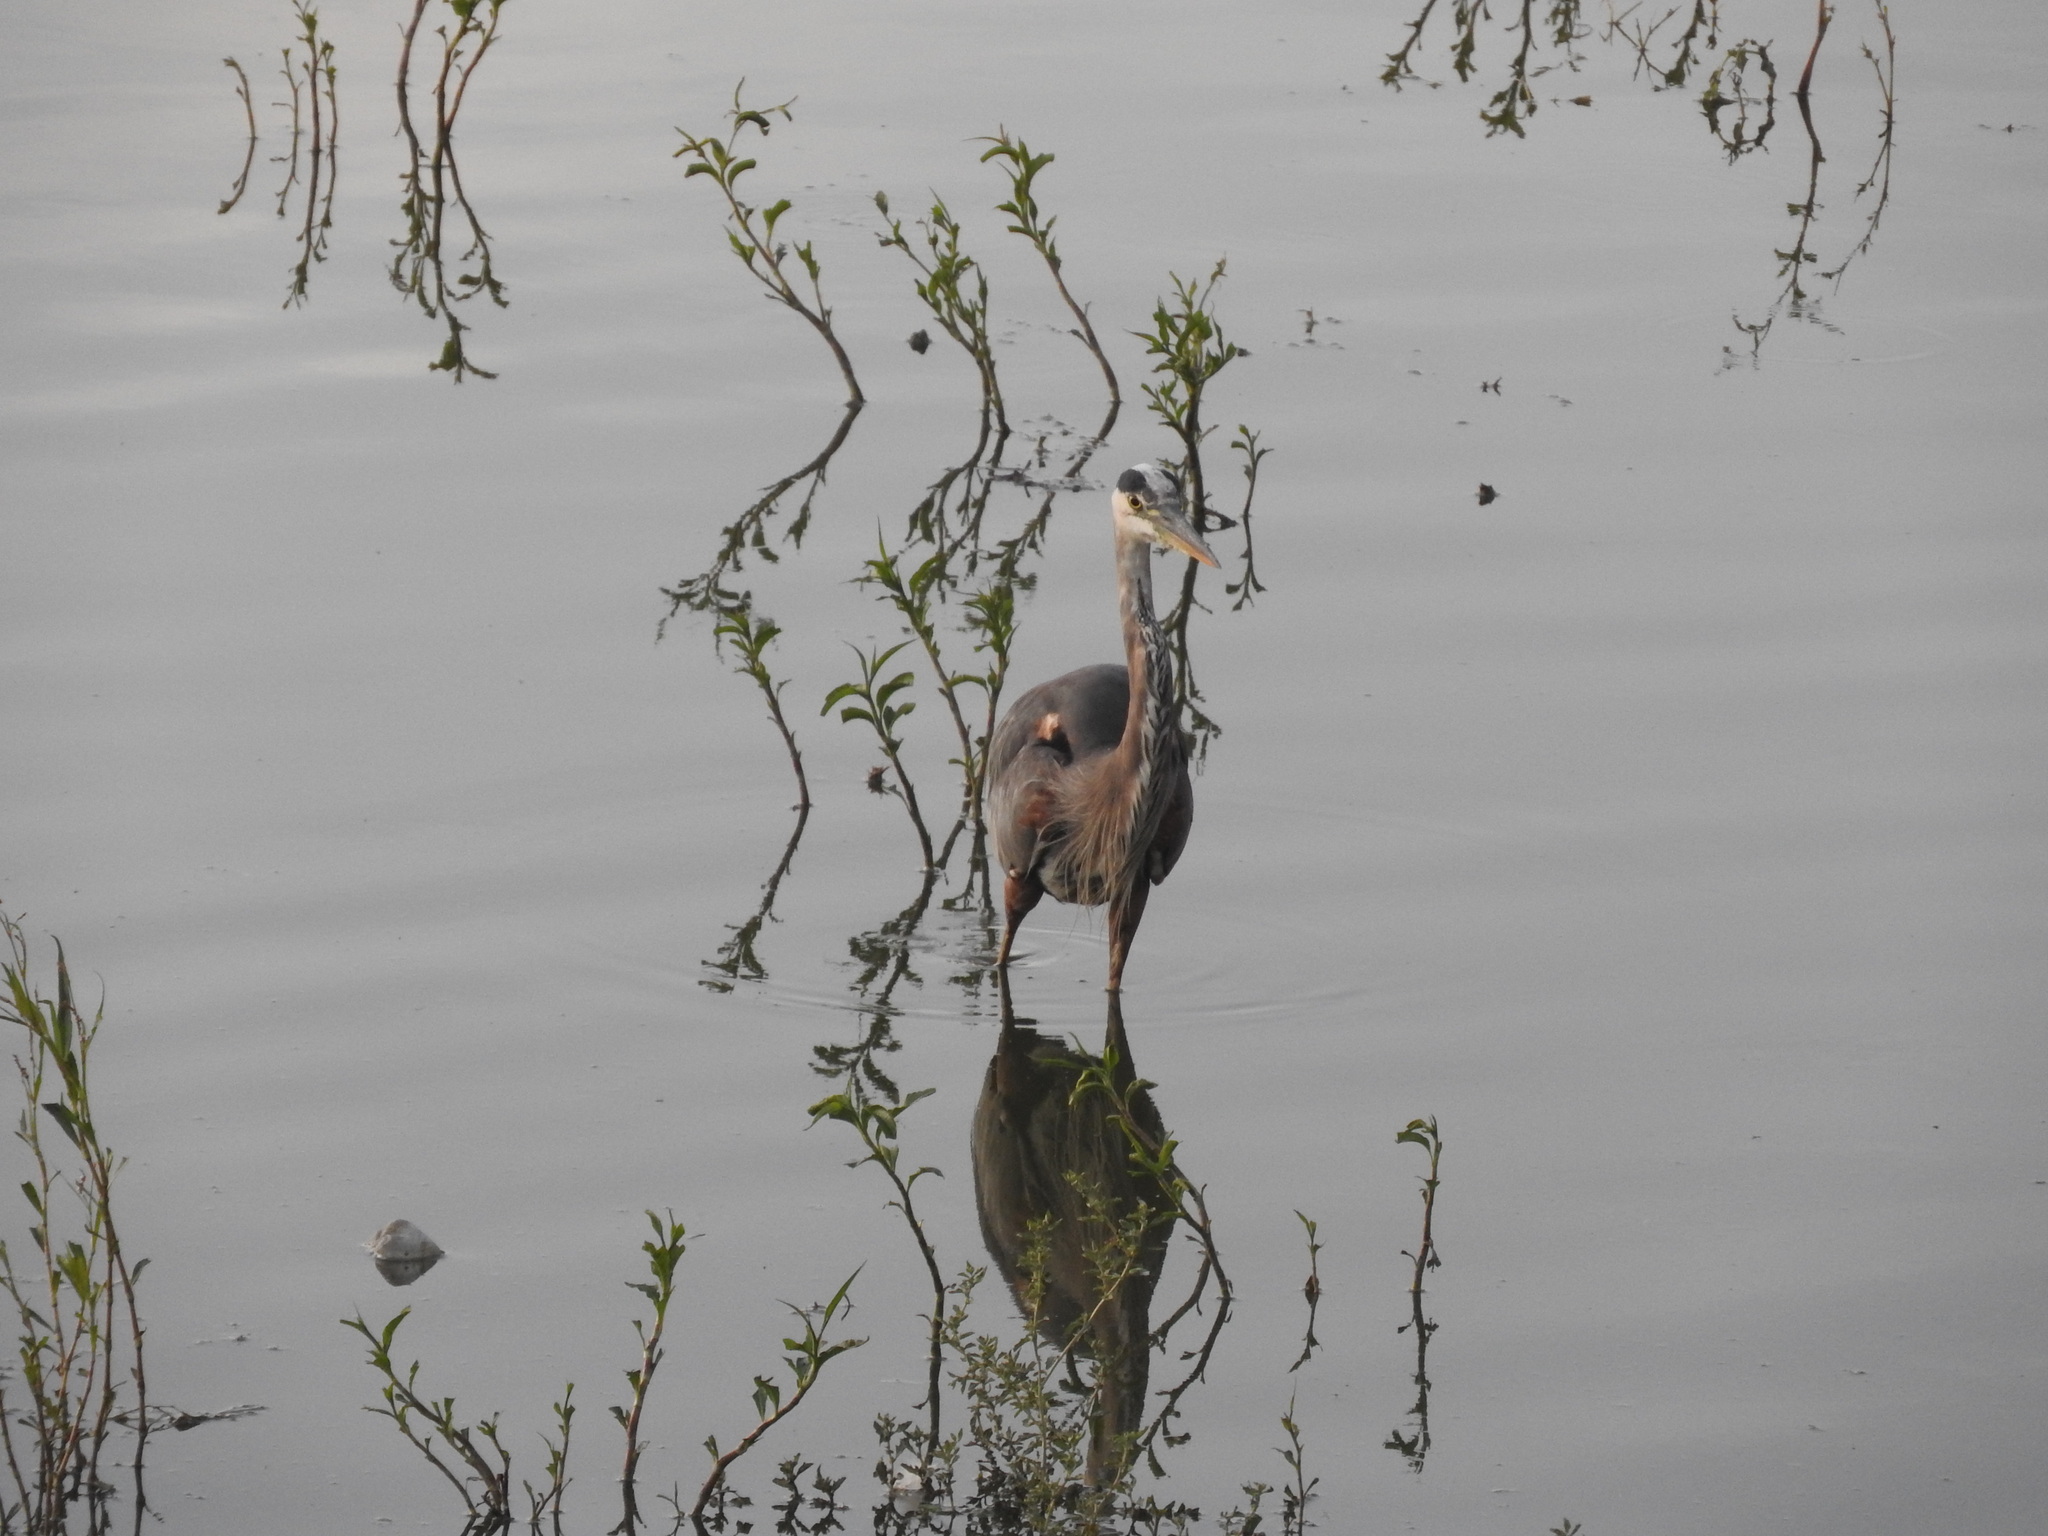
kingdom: Animalia
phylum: Chordata
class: Aves
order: Pelecaniformes
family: Ardeidae
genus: Ardea
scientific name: Ardea herodias
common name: Great blue heron
